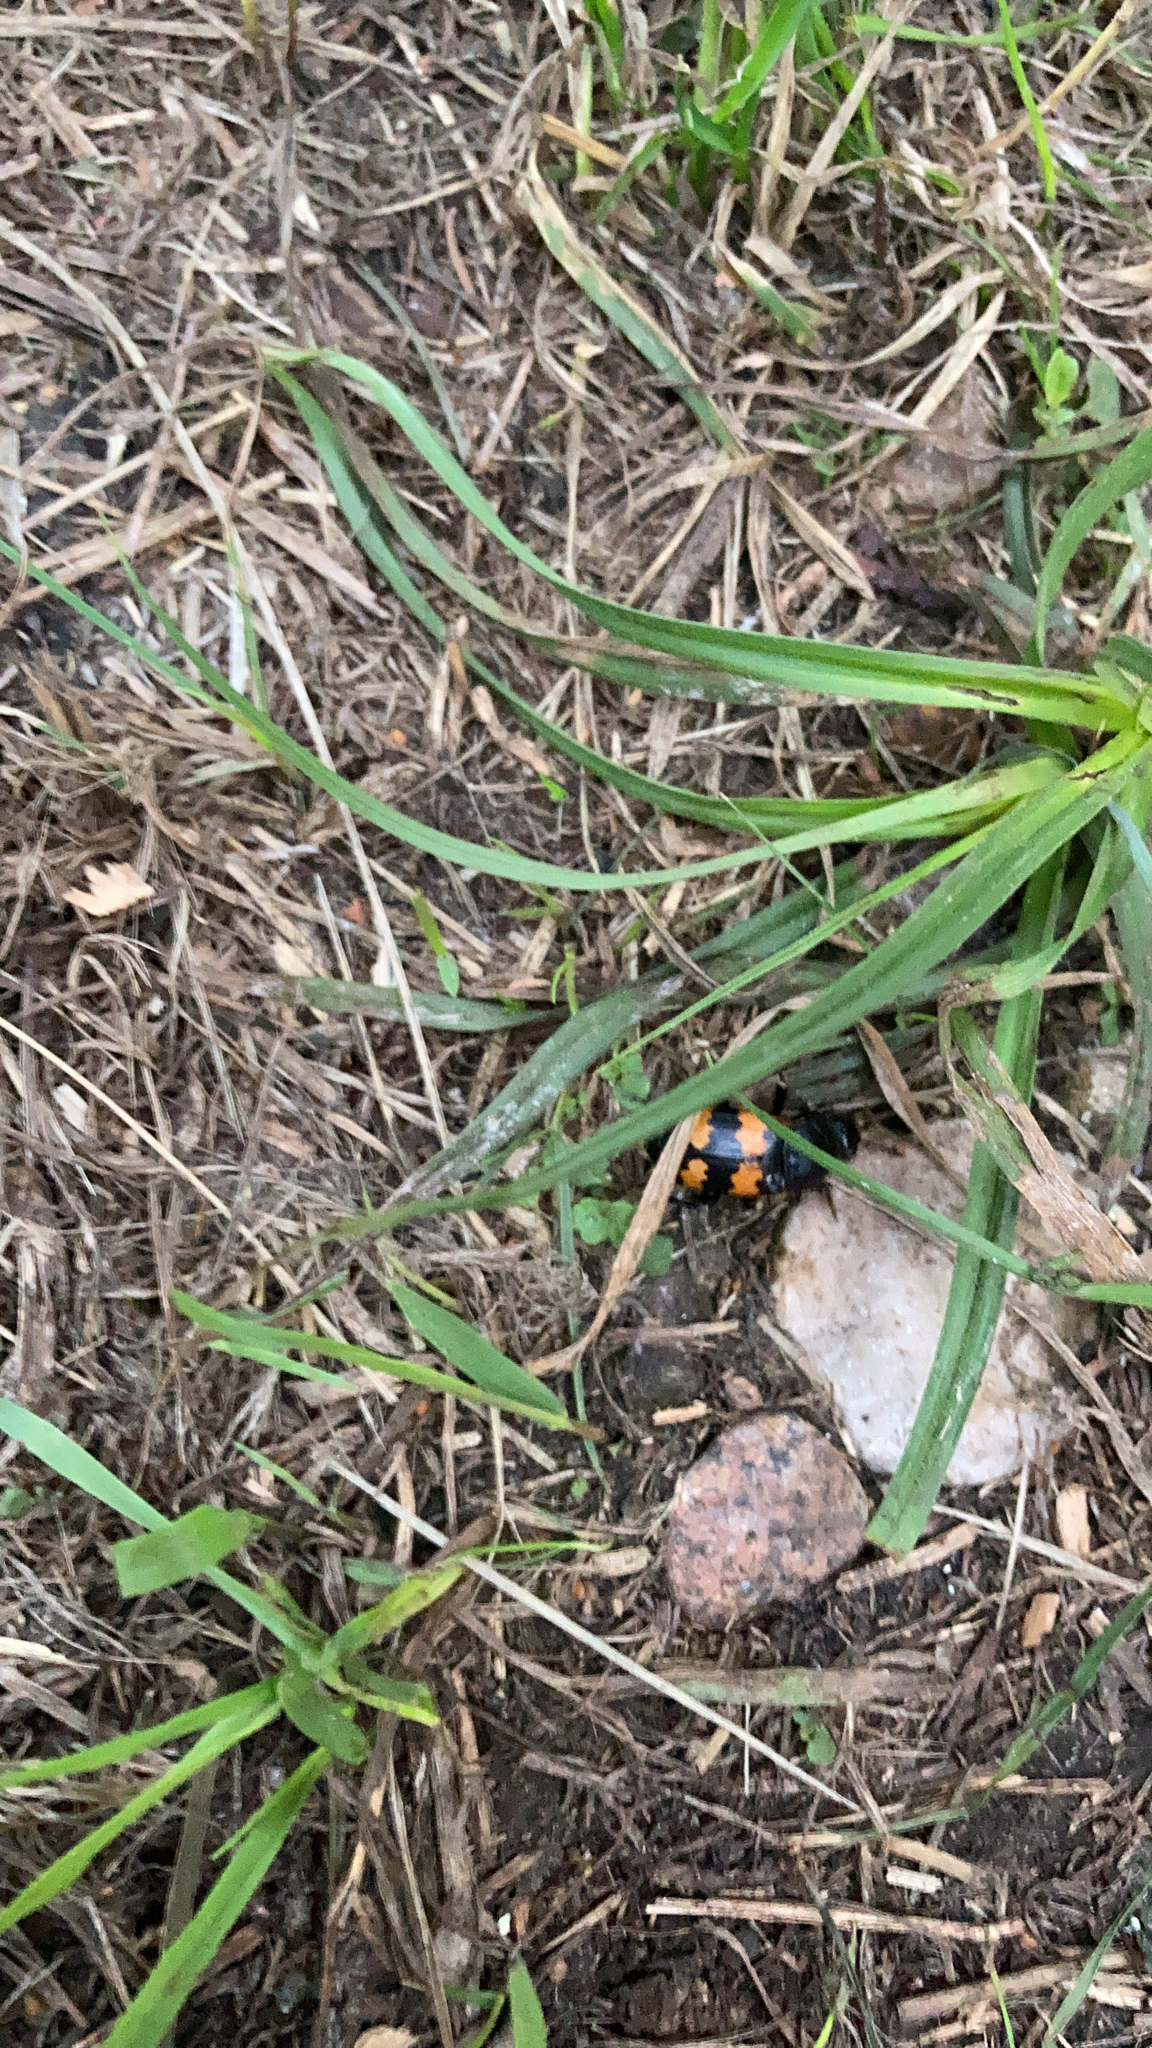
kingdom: Animalia
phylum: Arthropoda
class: Insecta
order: Coleoptera
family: Staphylinidae
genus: Nicrophorus
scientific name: Nicrophorus vespillo
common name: Common burying beetle
